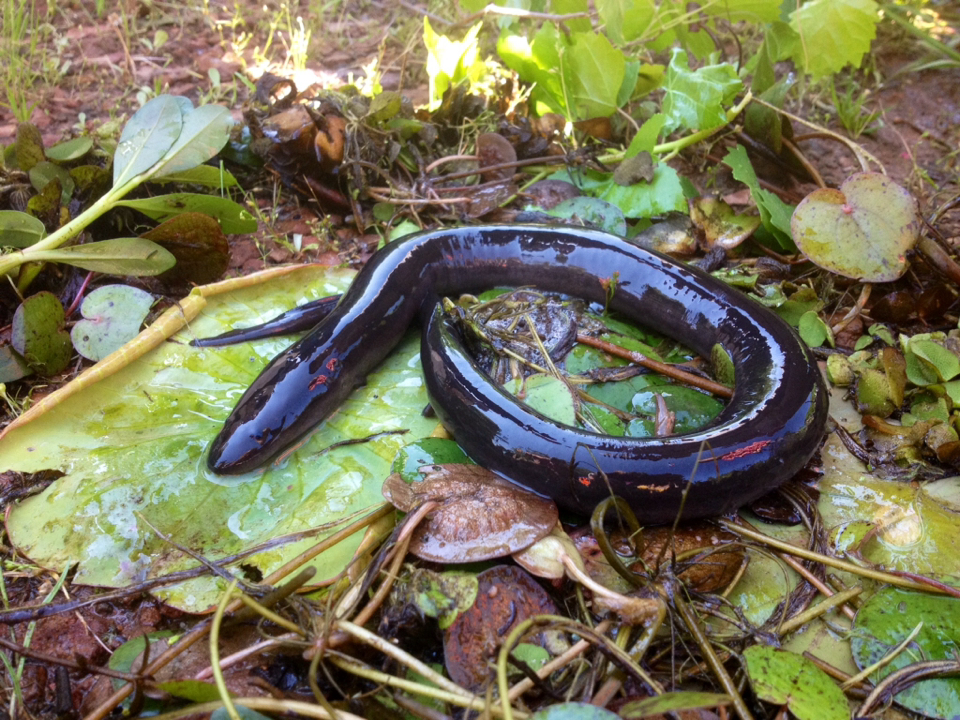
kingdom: Animalia
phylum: Chordata
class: Amphibia
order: Caudata
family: Amphiumidae
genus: Amphiuma
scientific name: Amphiuma tridactylum
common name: Three-toed amphiuma
